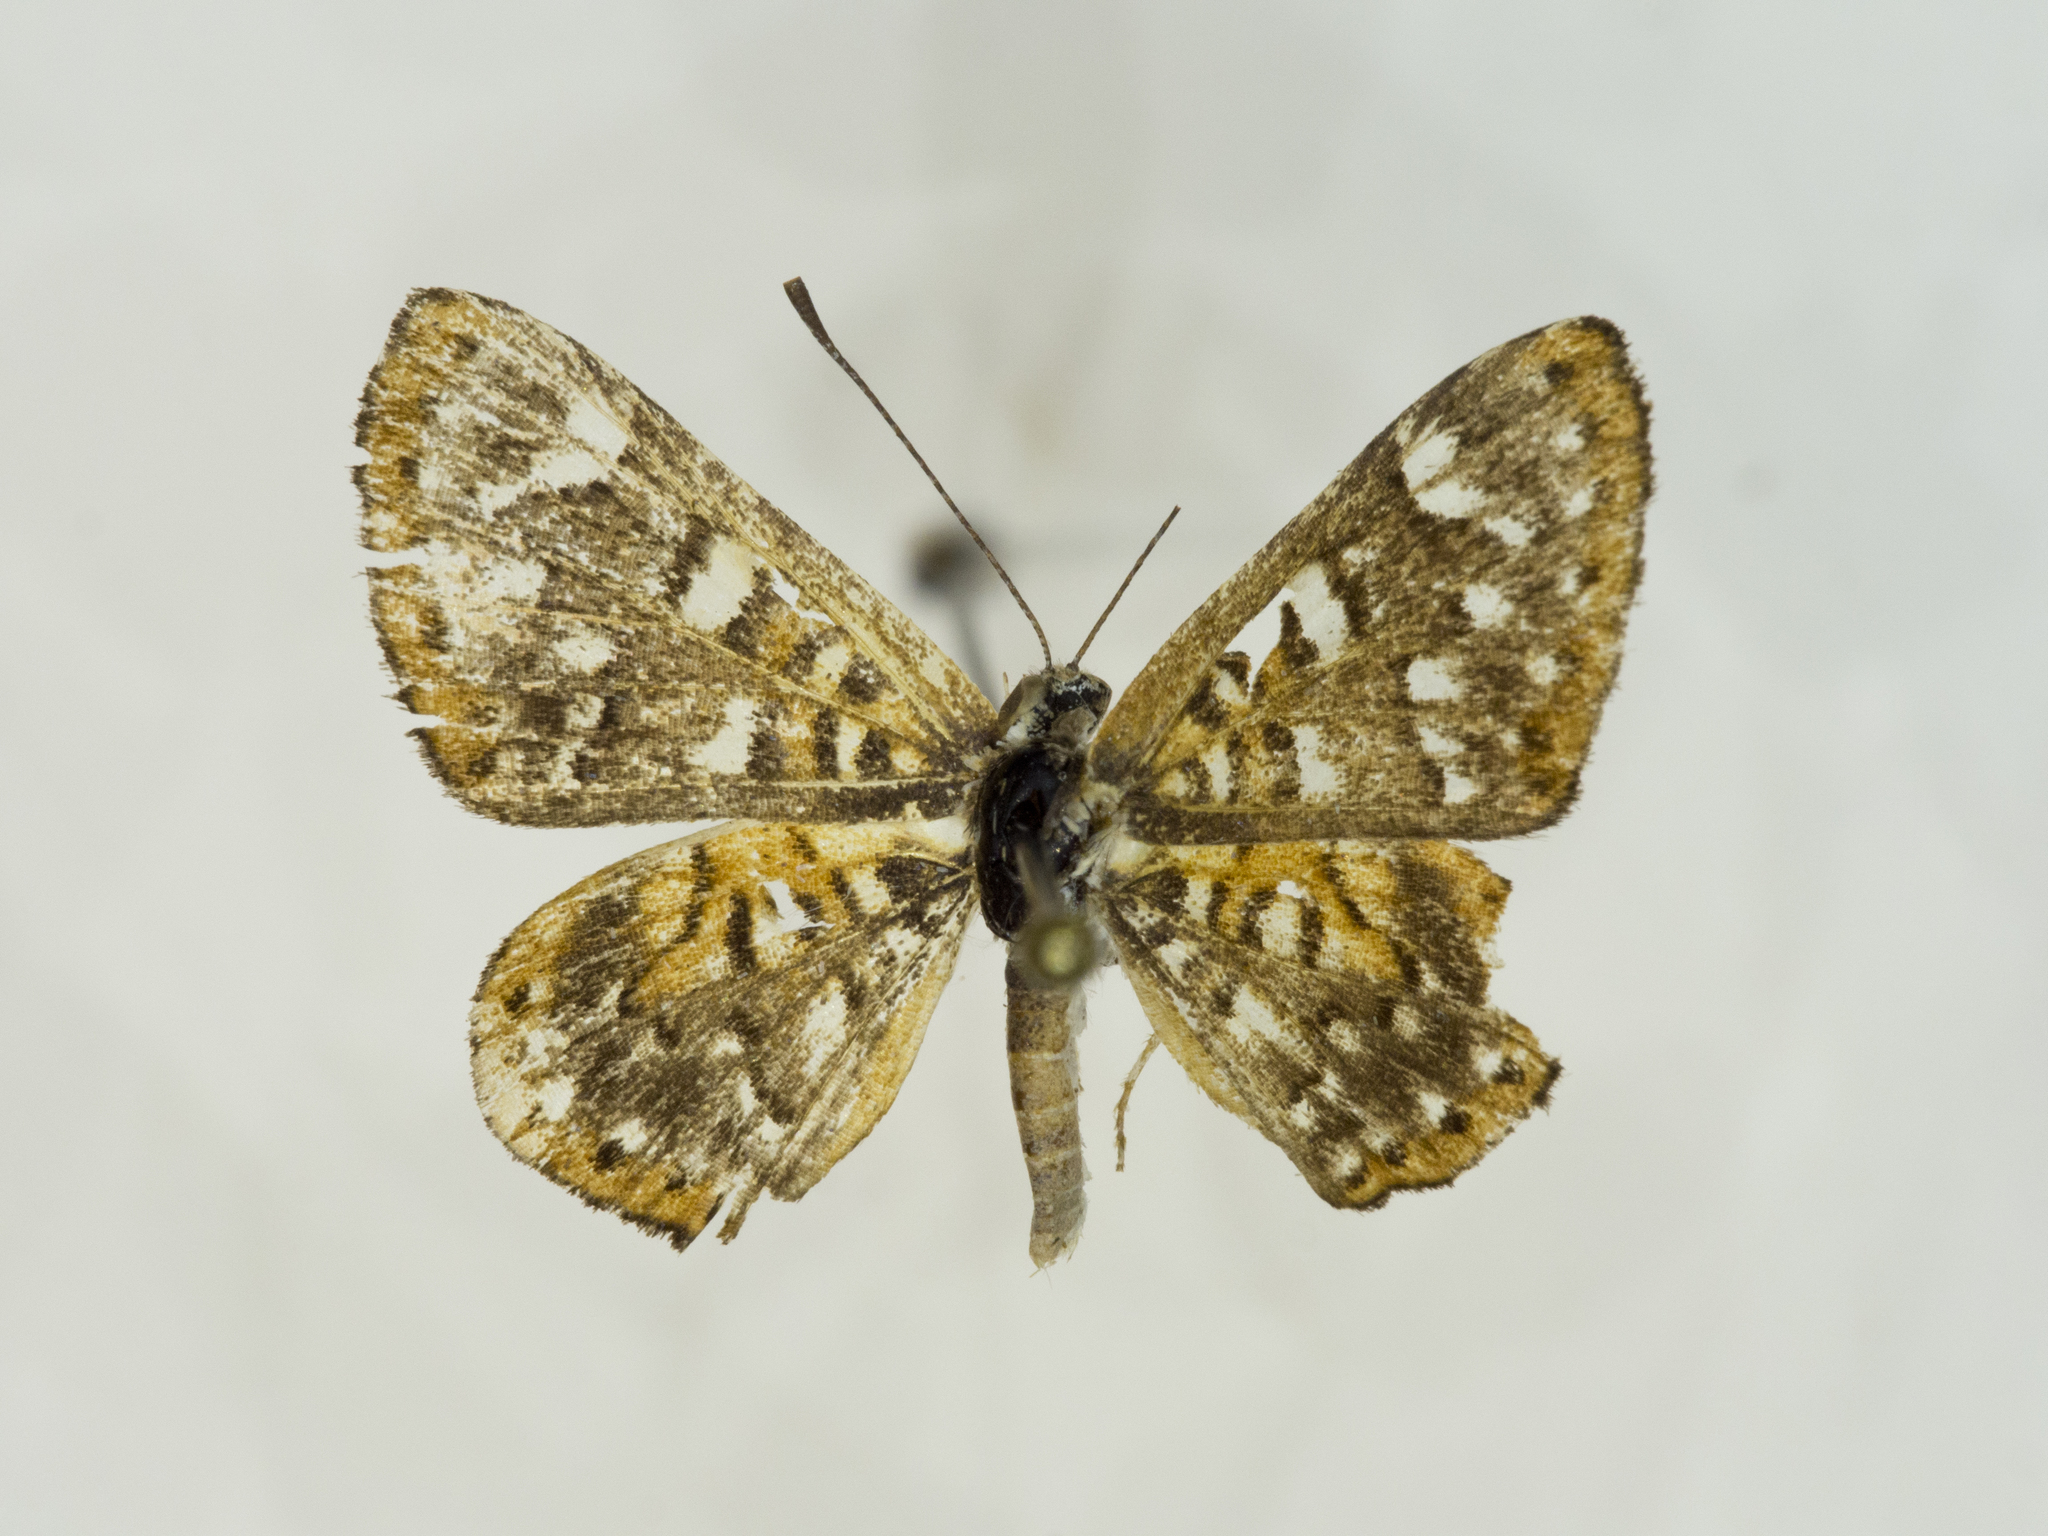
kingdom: Animalia
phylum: Arthropoda
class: Insecta
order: Lepidoptera
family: Riodinidae
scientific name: Riodinidae
